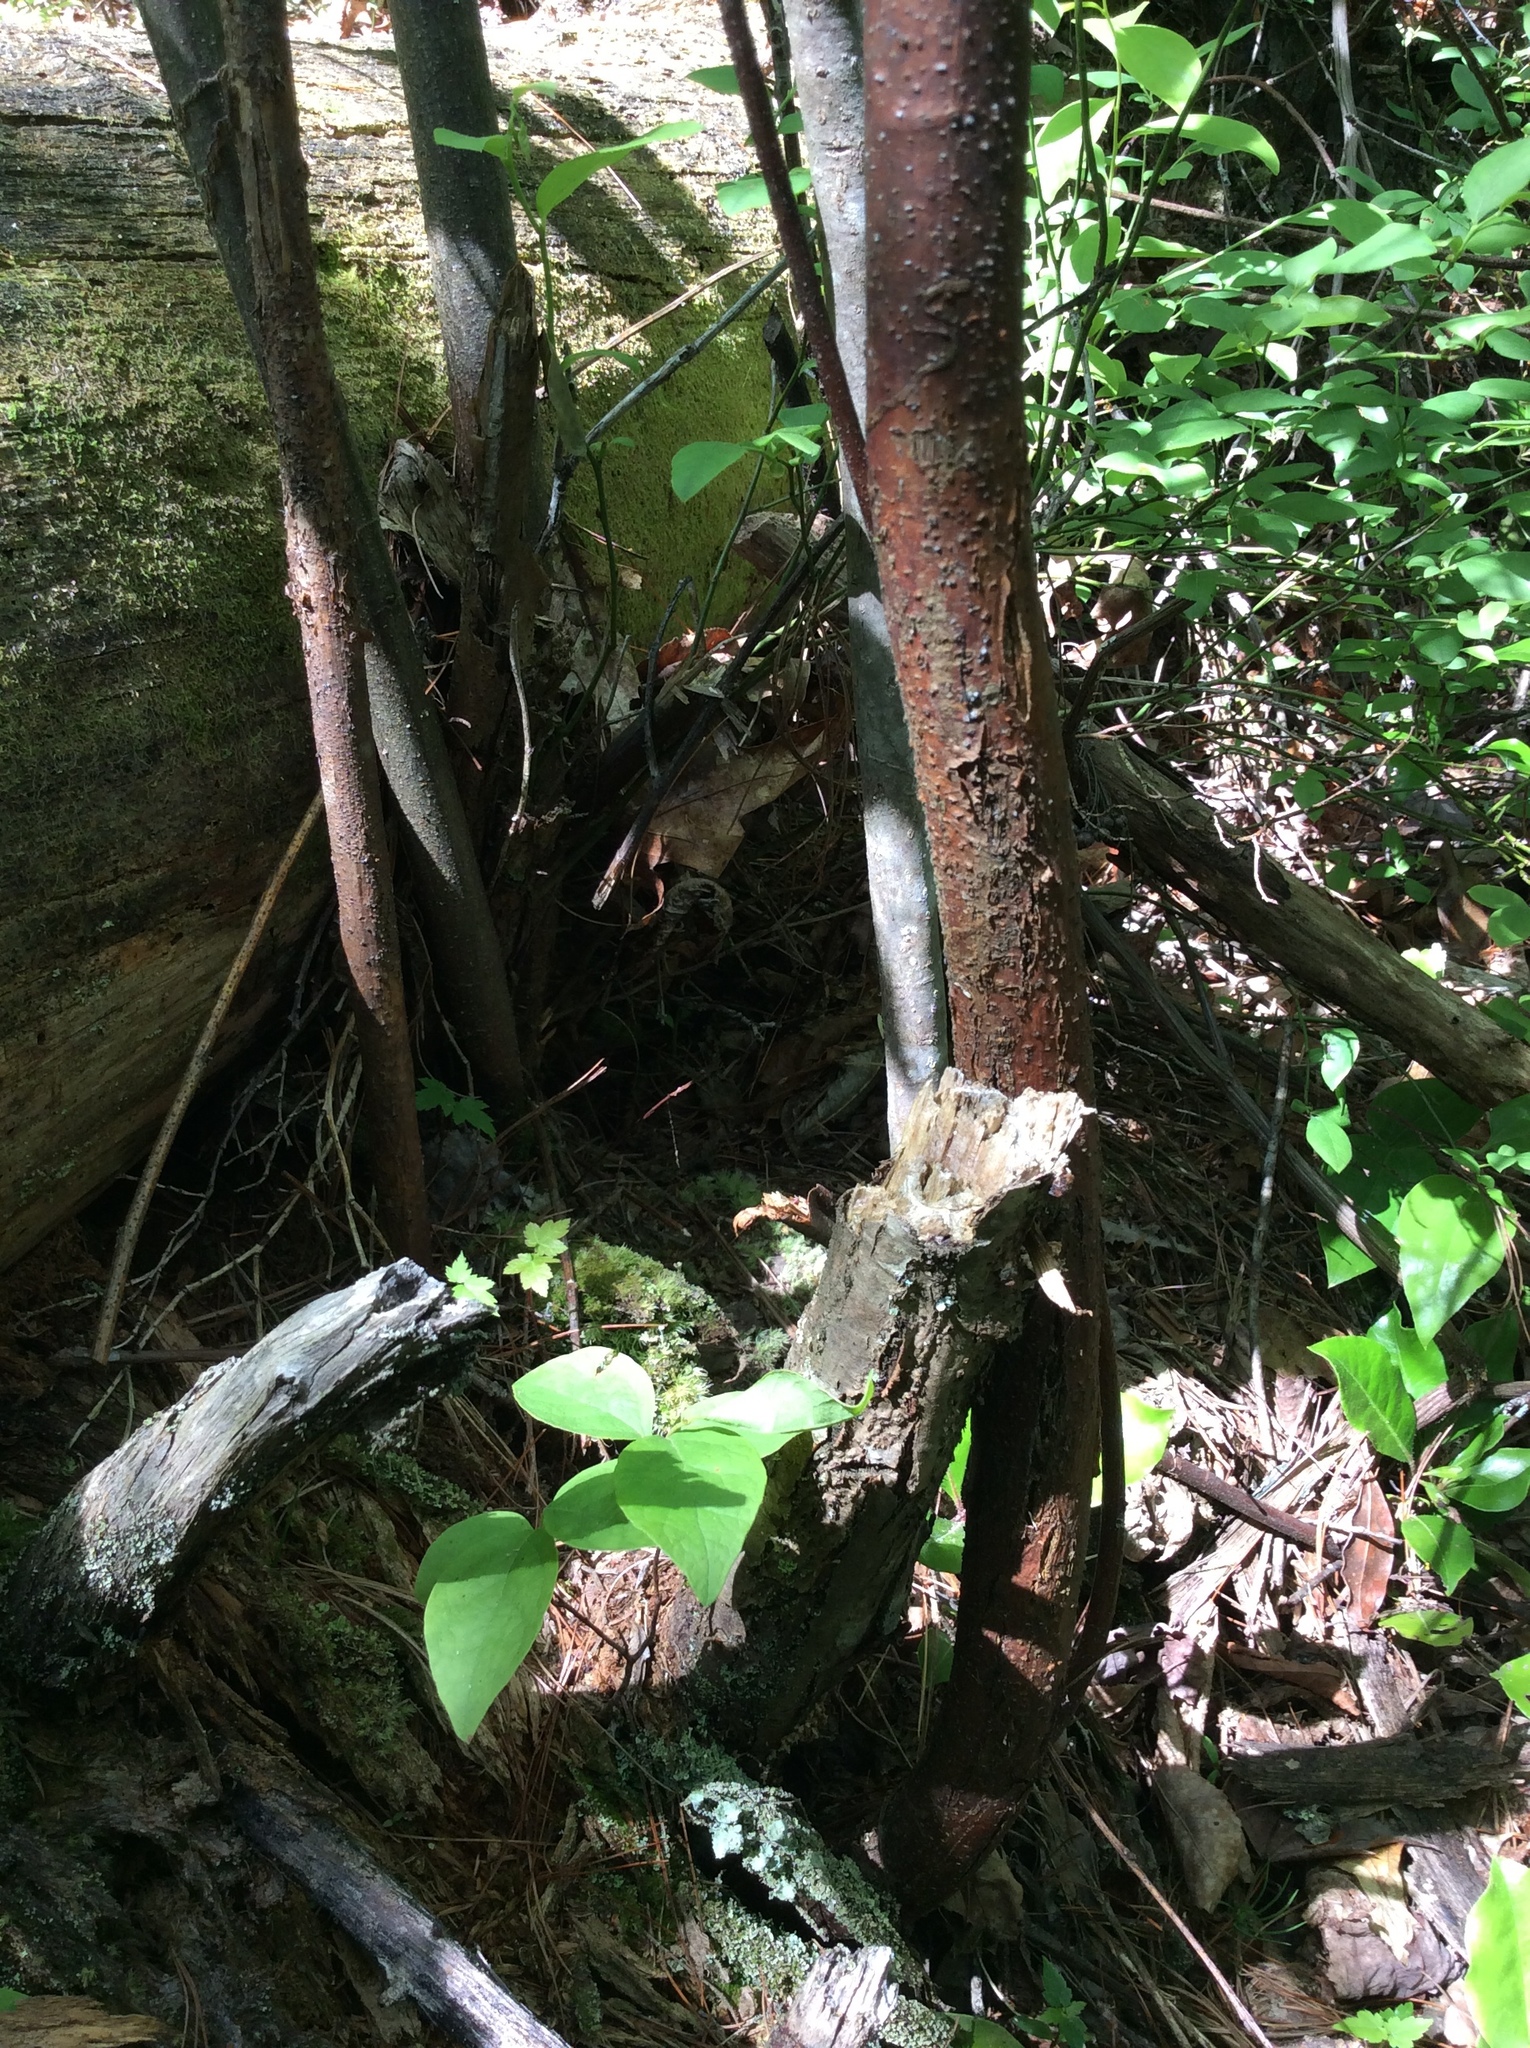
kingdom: Plantae
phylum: Tracheophyta
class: Magnoliopsida
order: Fagales
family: Fagaceae
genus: Castanea
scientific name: Castanea dentata
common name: American chestnut
